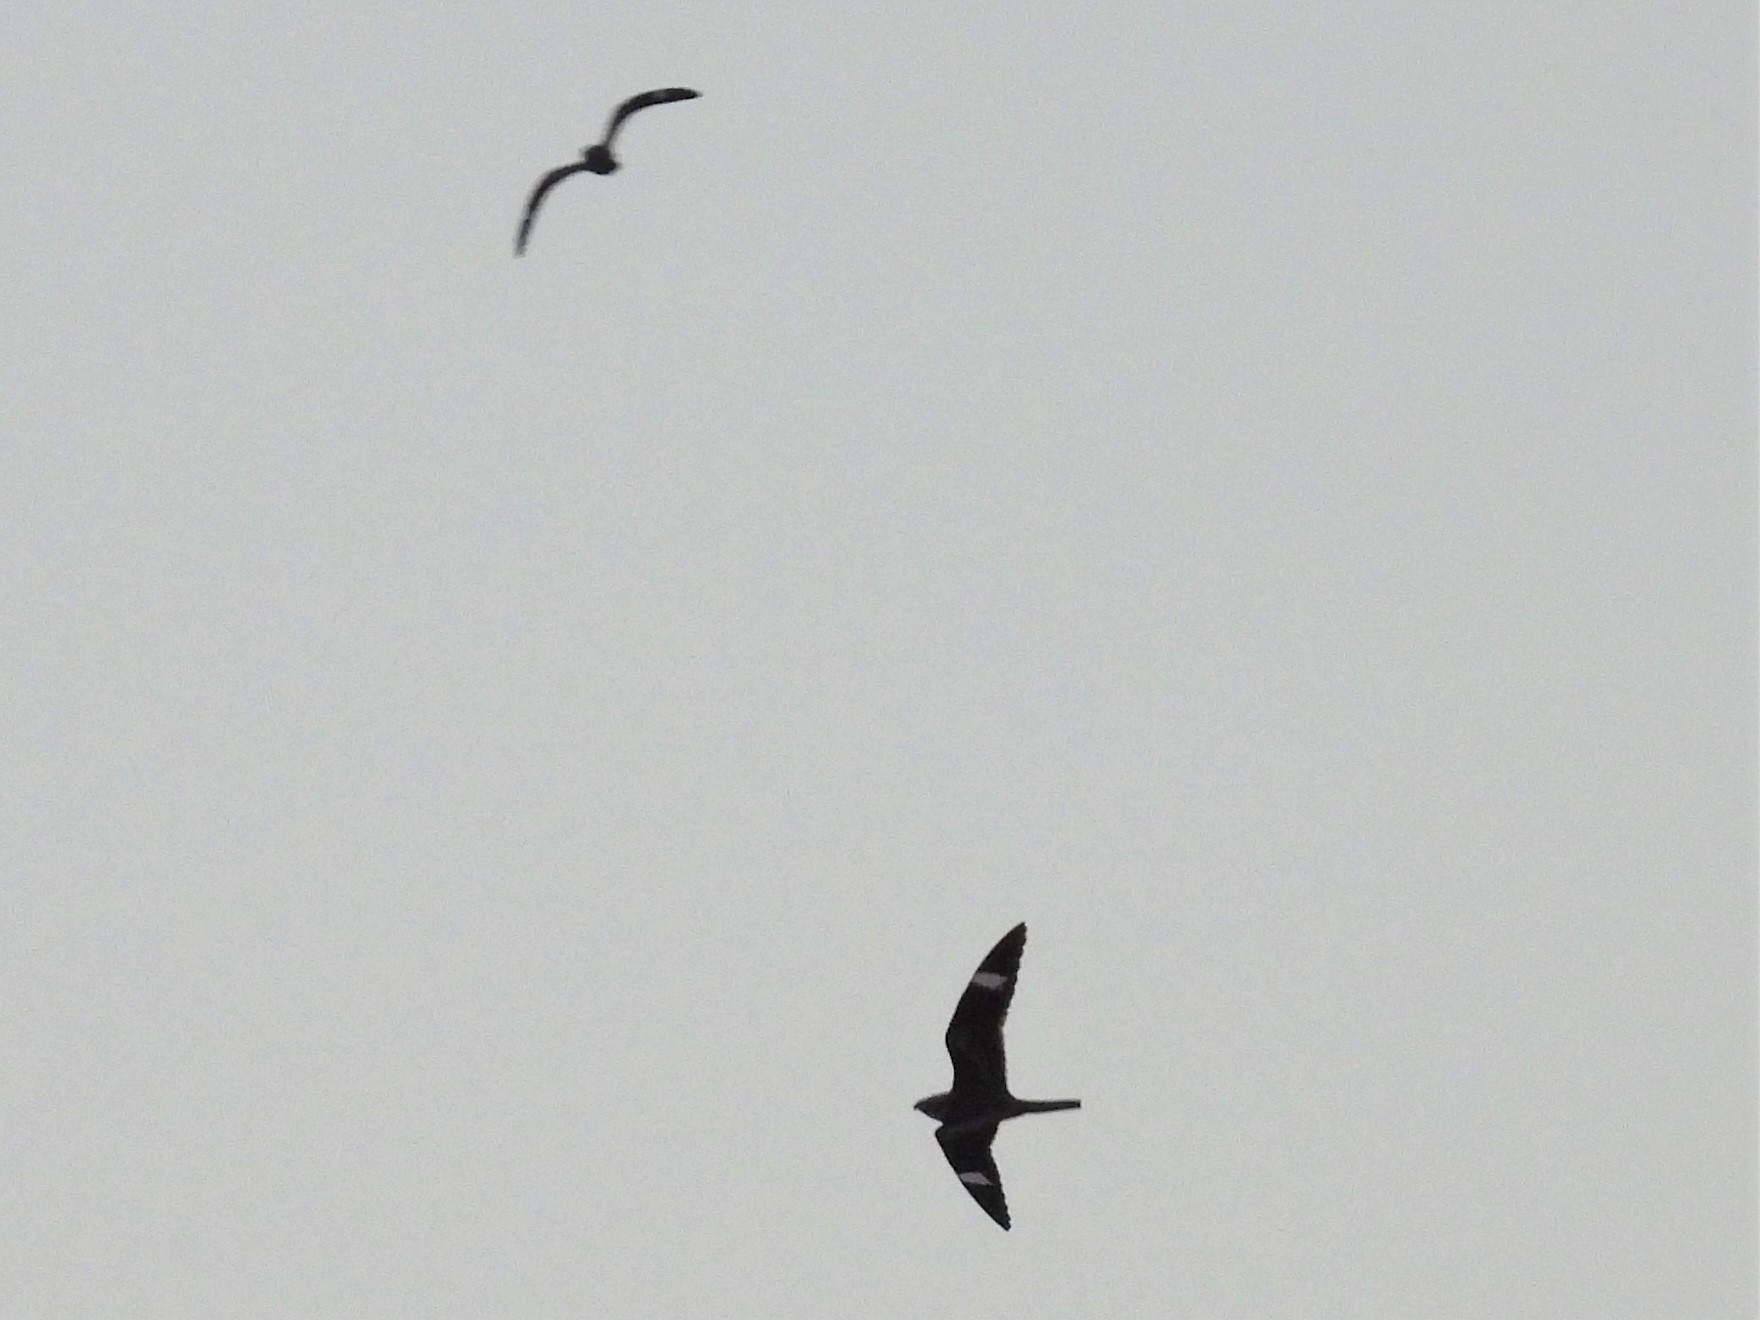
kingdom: Animalia
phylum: Chordata
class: Aves
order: Caprimulgiformes
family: Caprimulgidae
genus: Chordeiles
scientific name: Chordeiles minor
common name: Common nighthawk
